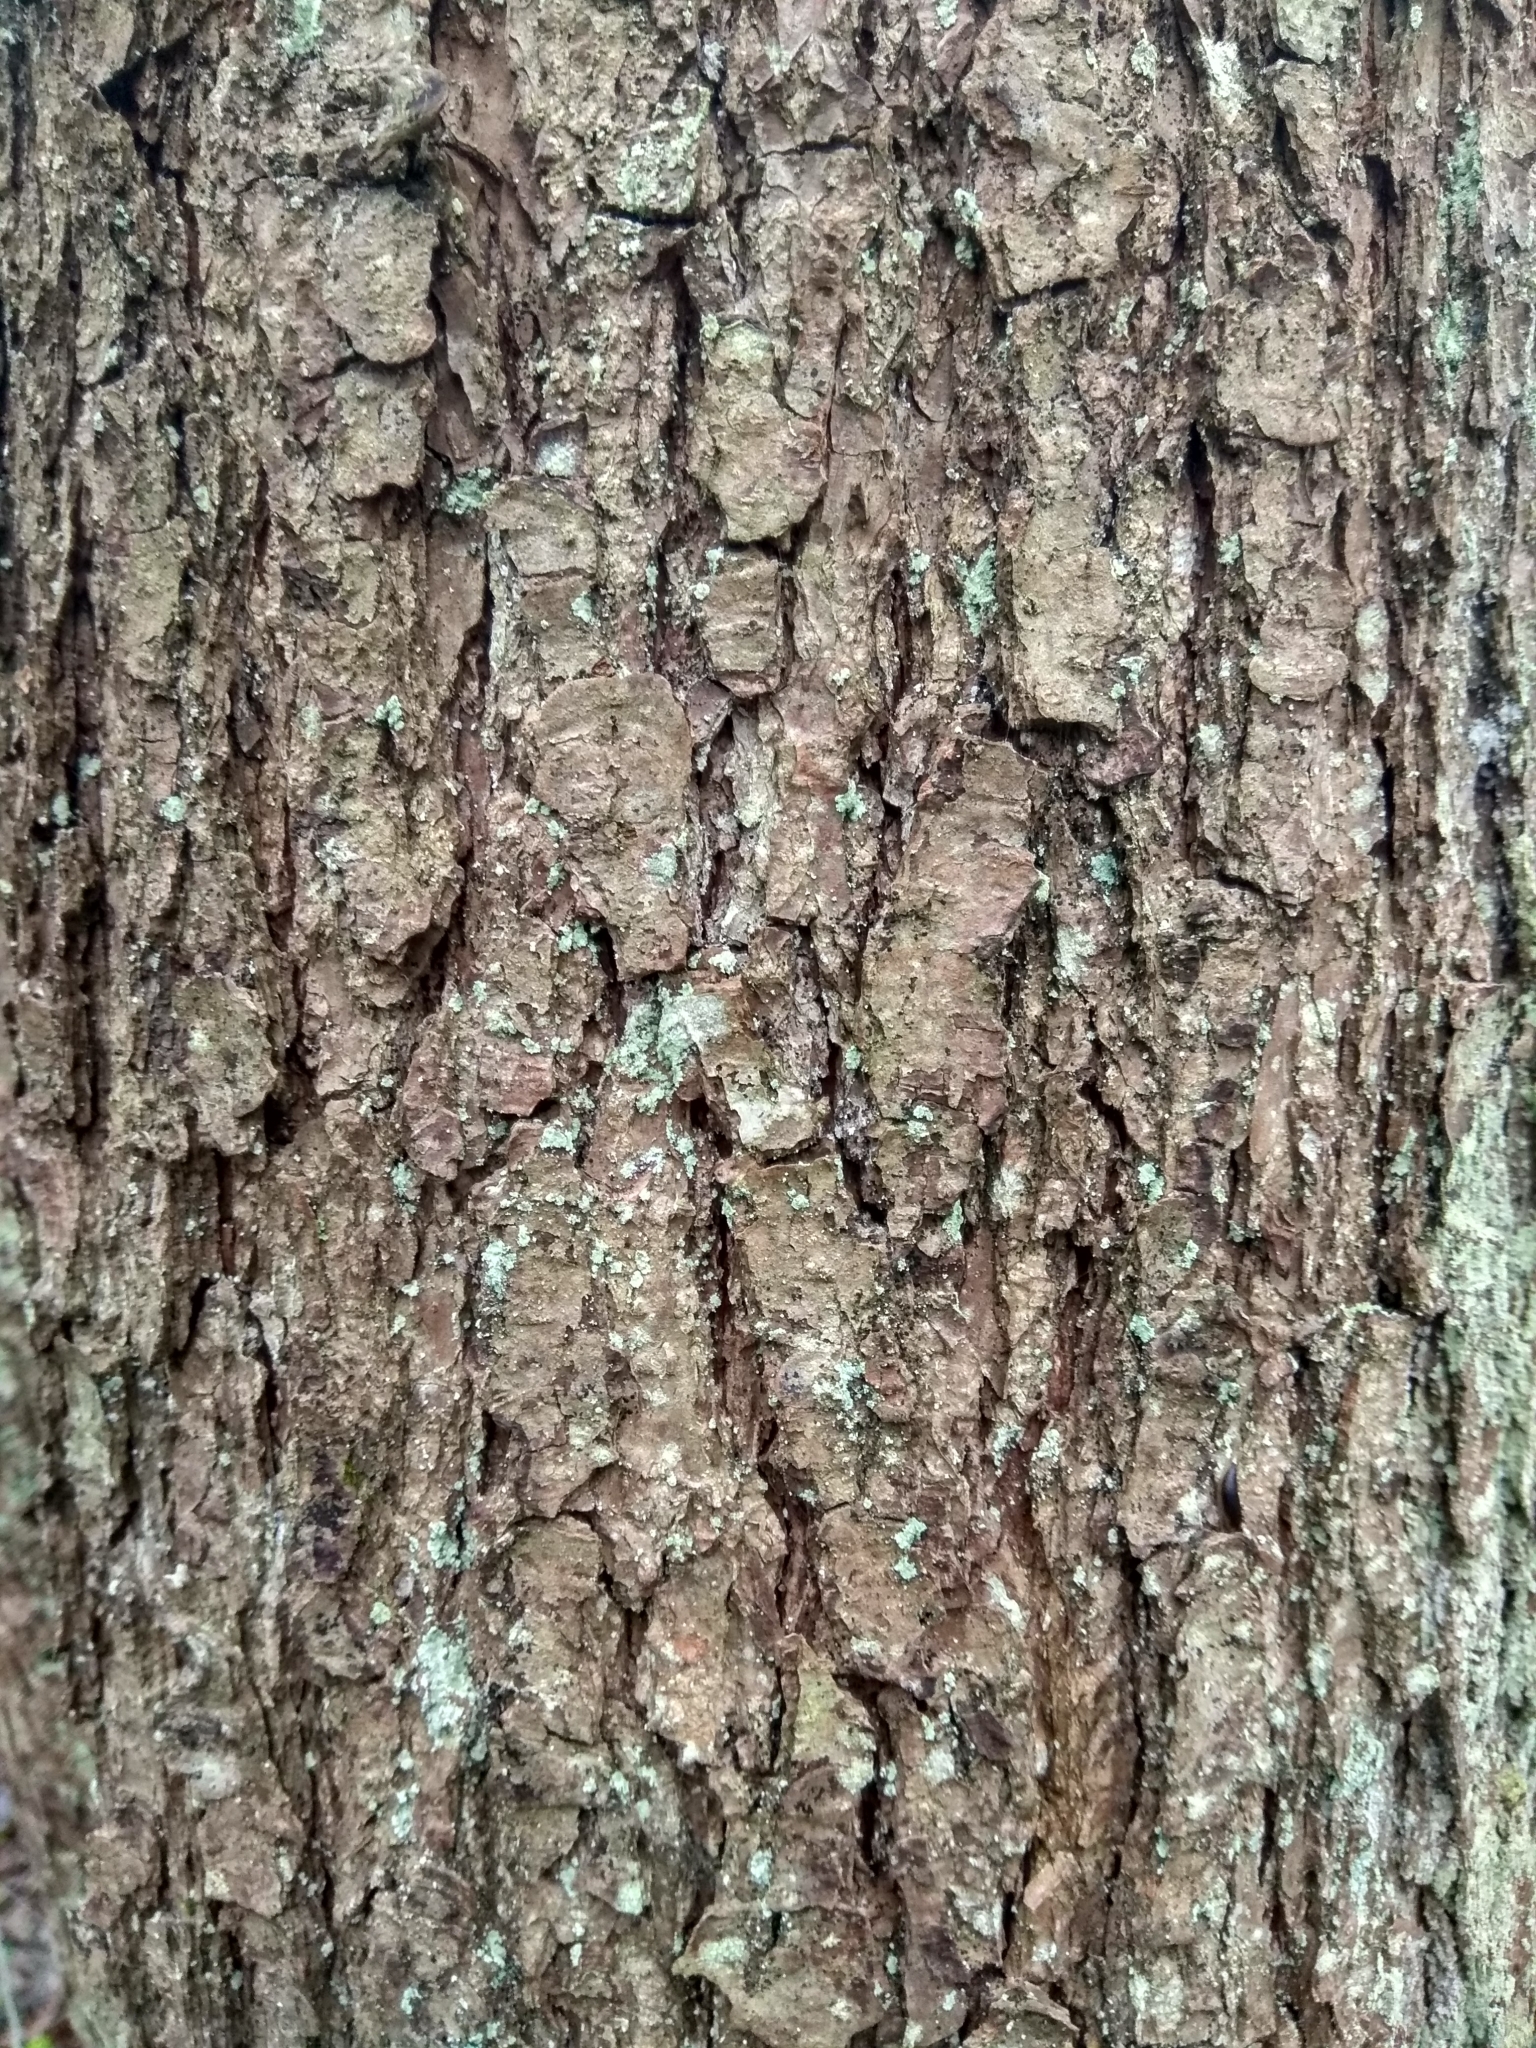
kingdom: Plantae
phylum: Tracheophyta
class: Magnoliopsida
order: Fagales
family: Betulaceae
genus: Alnus
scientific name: Alnus glutinosa
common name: Black alder
